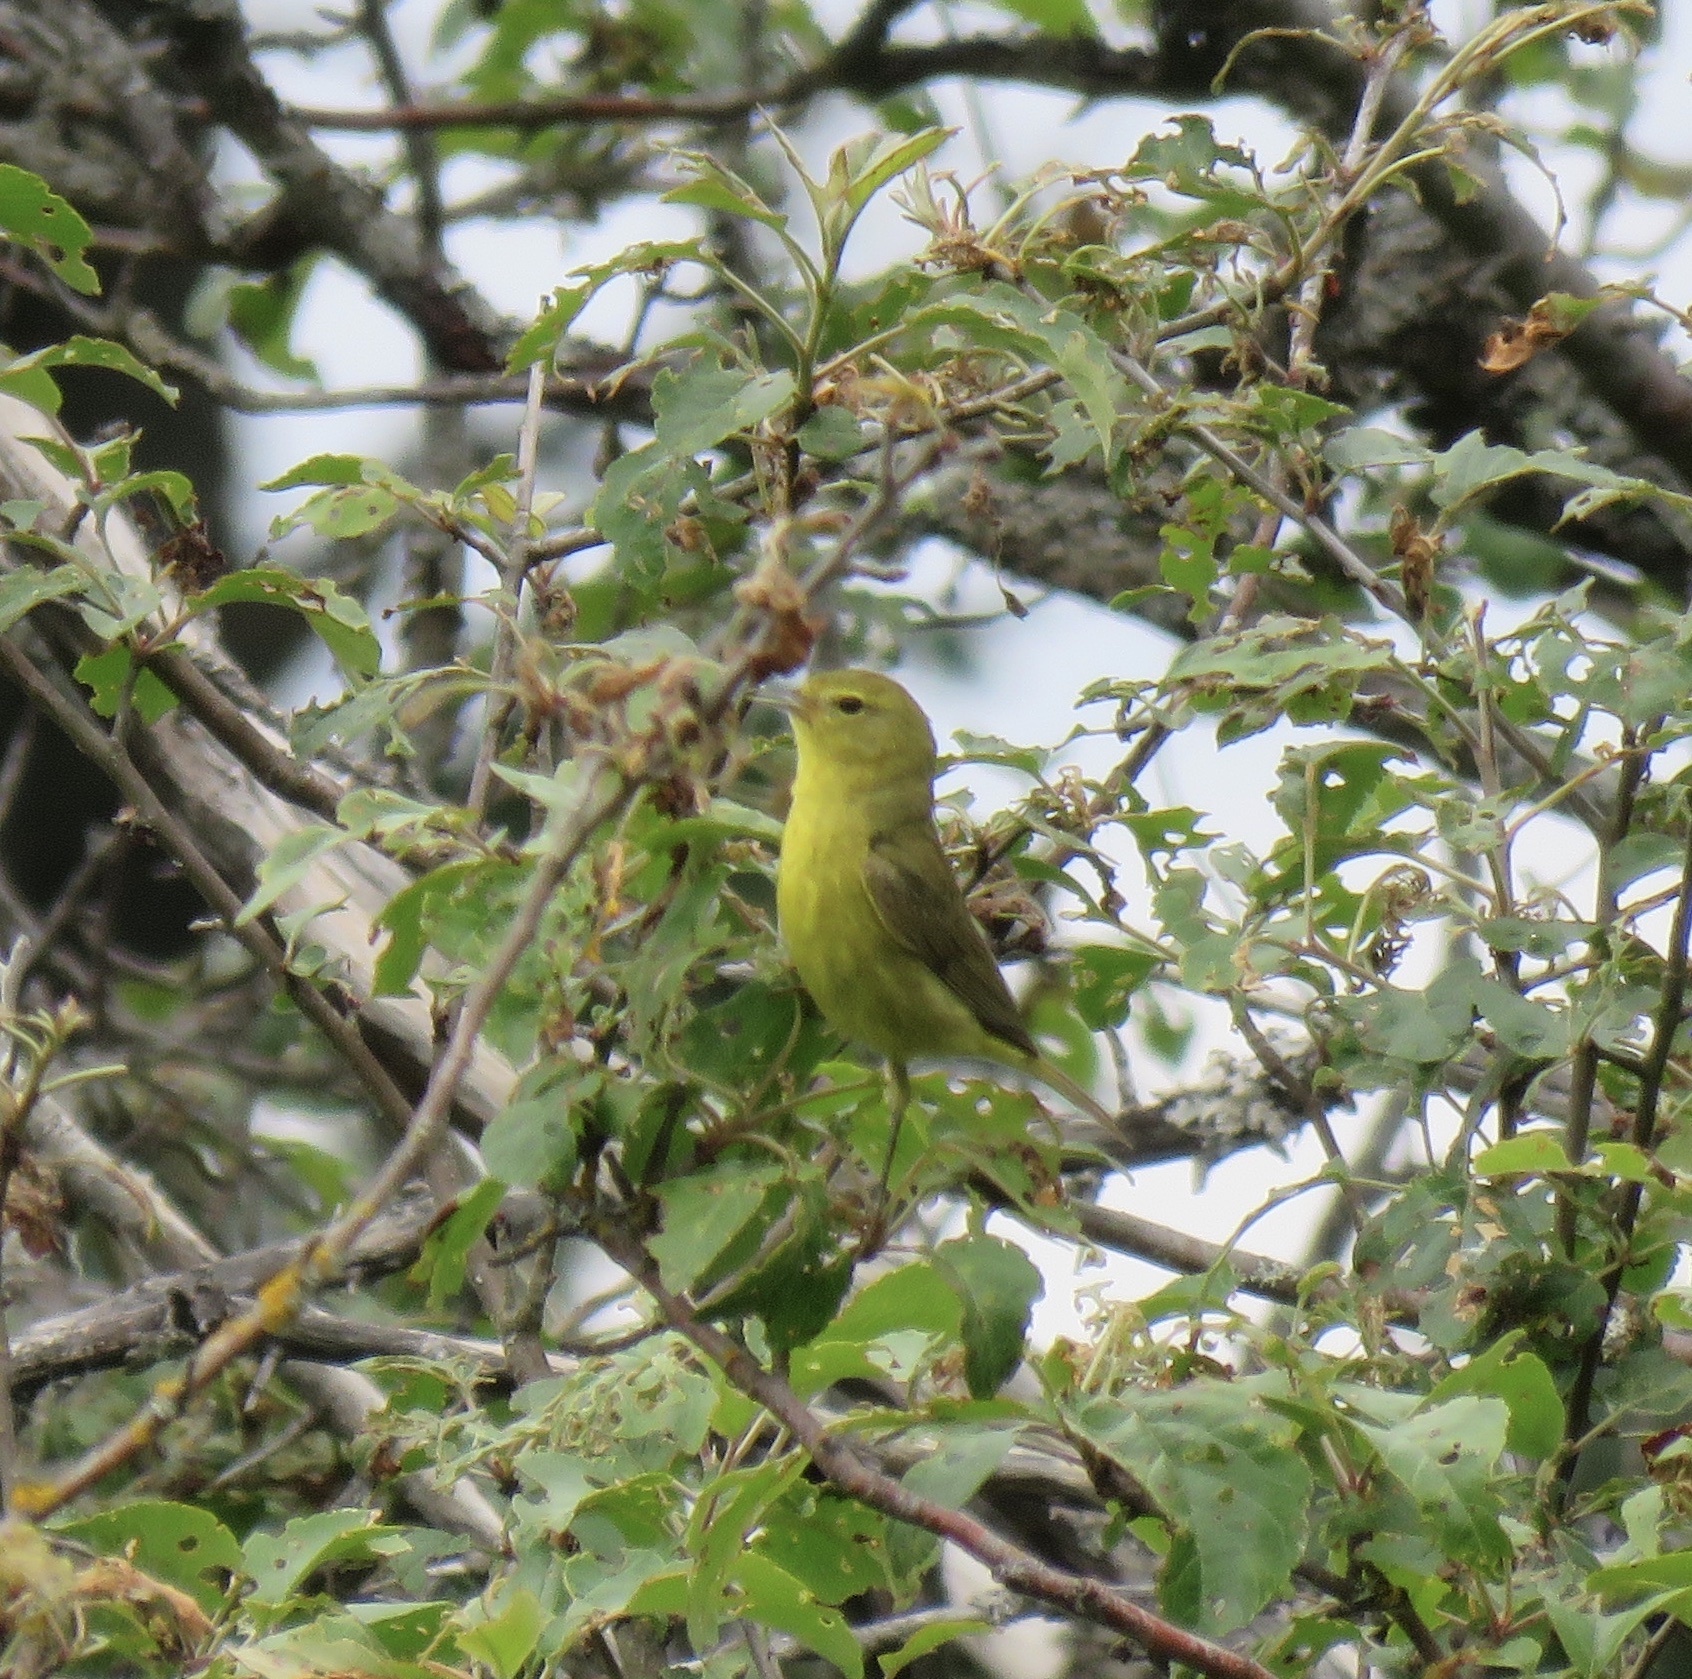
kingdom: Animalia
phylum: Chordata
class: Aves
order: Passeriformes
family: Parulidae
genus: Leiothlypis
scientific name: Leiothlypis celata
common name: Orange-crowned warbler
